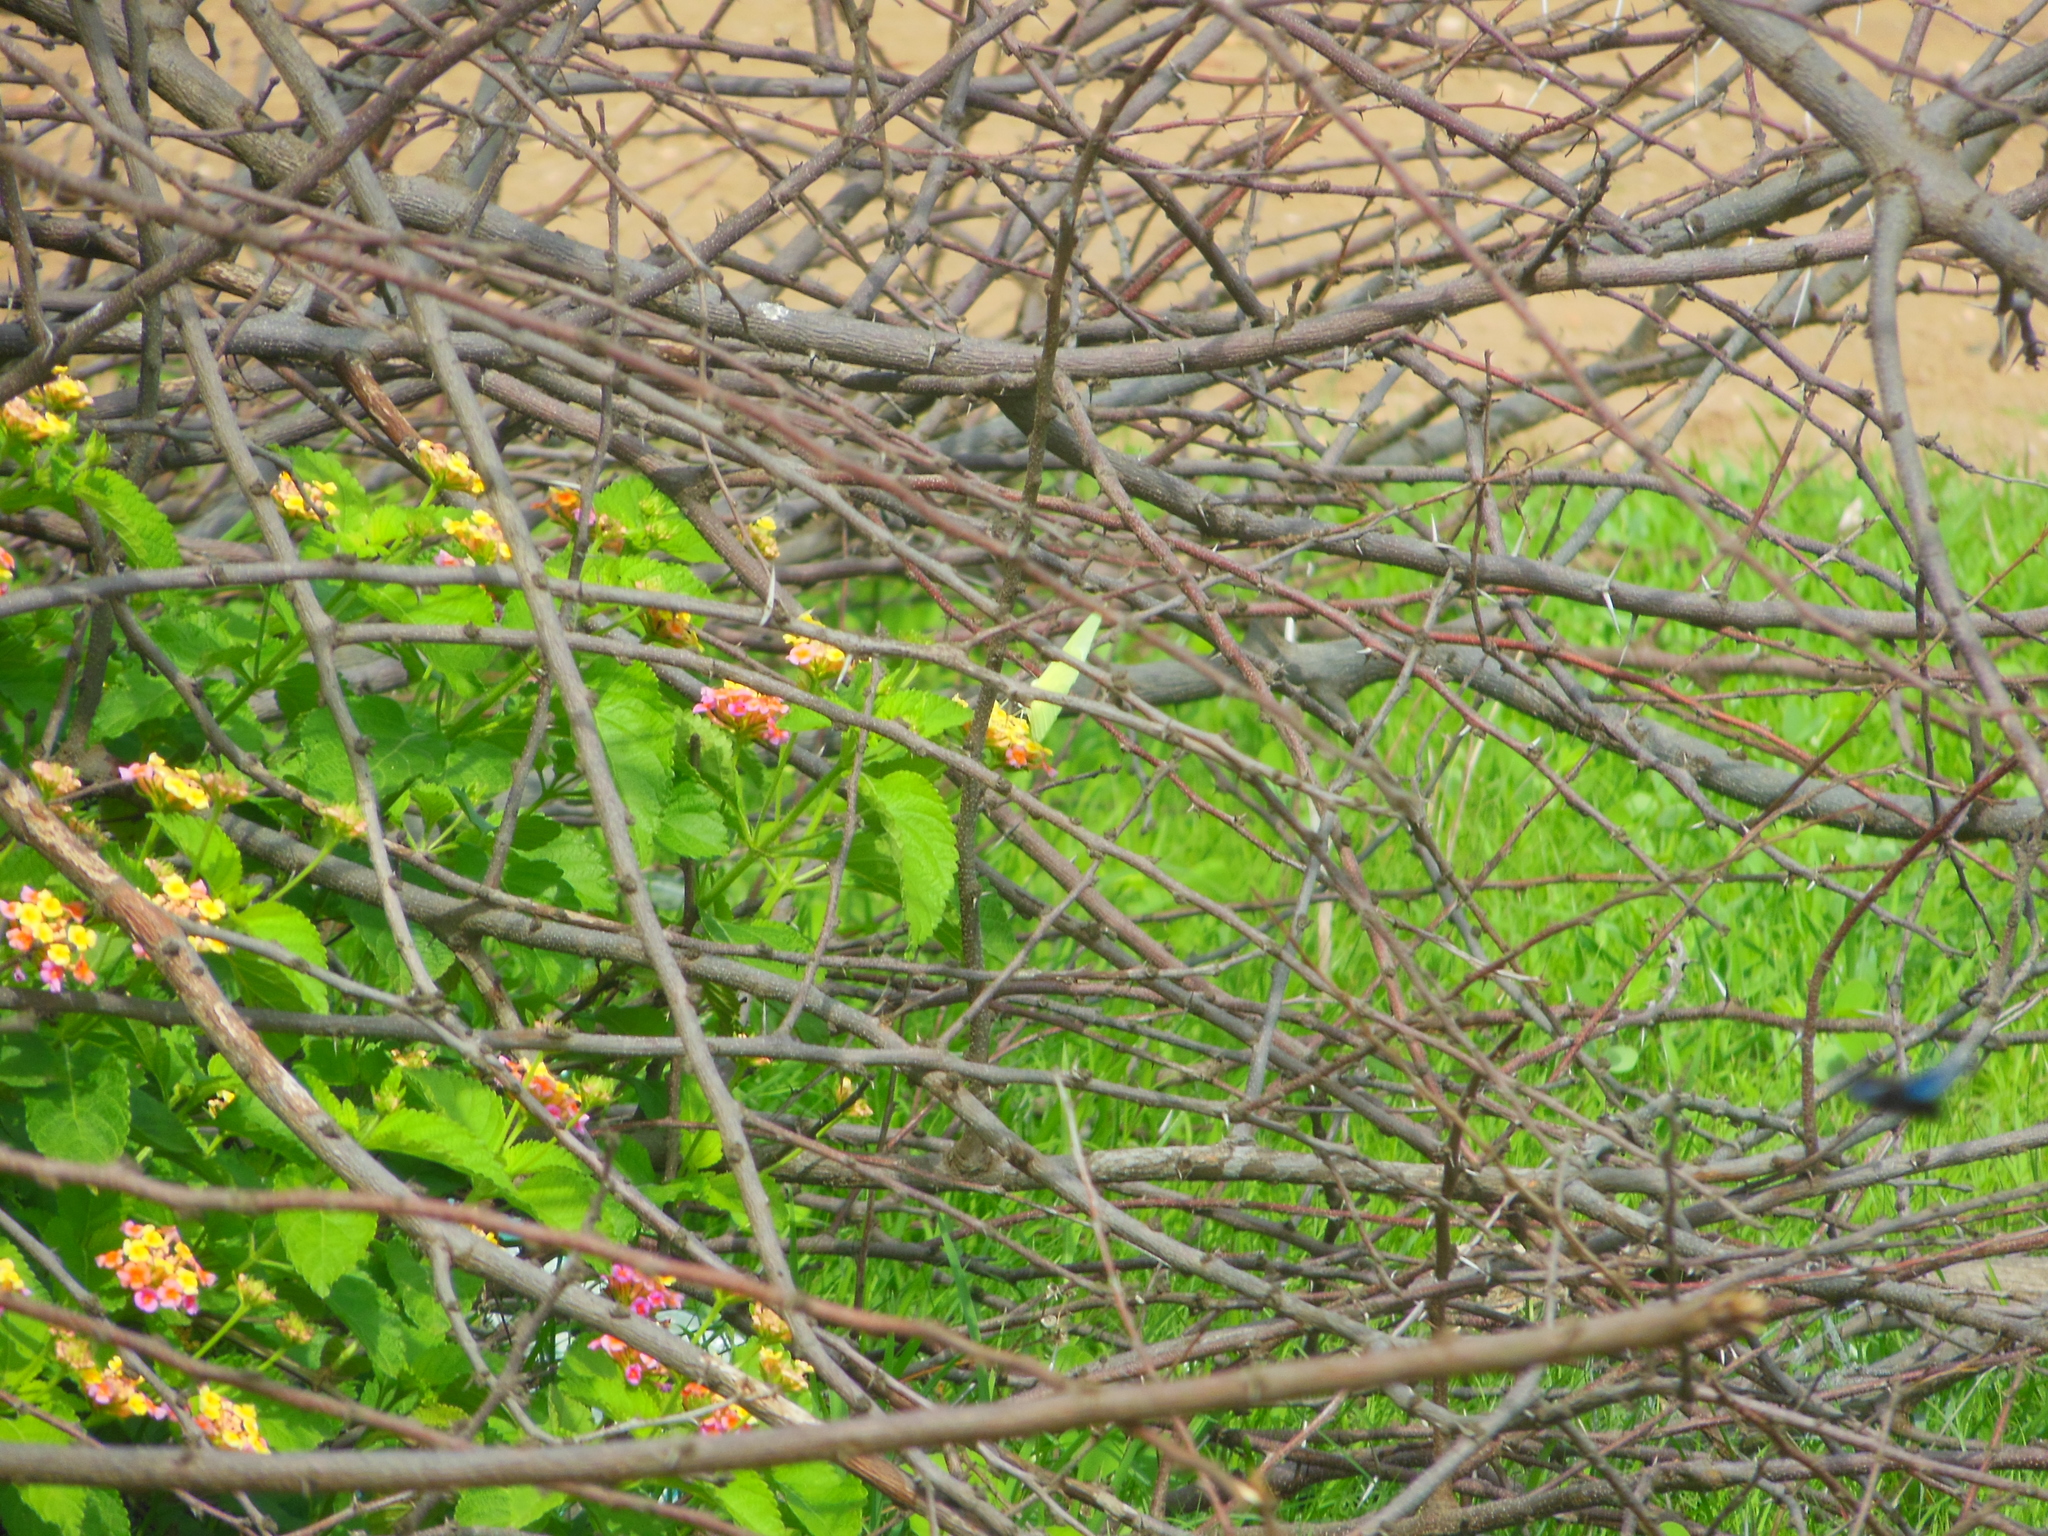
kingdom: Animalia
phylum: Arthropoda
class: Insecta
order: Lepidoptera
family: Pieridae
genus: Catopsilia
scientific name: Catopsilia pomona
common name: Common emigrant
